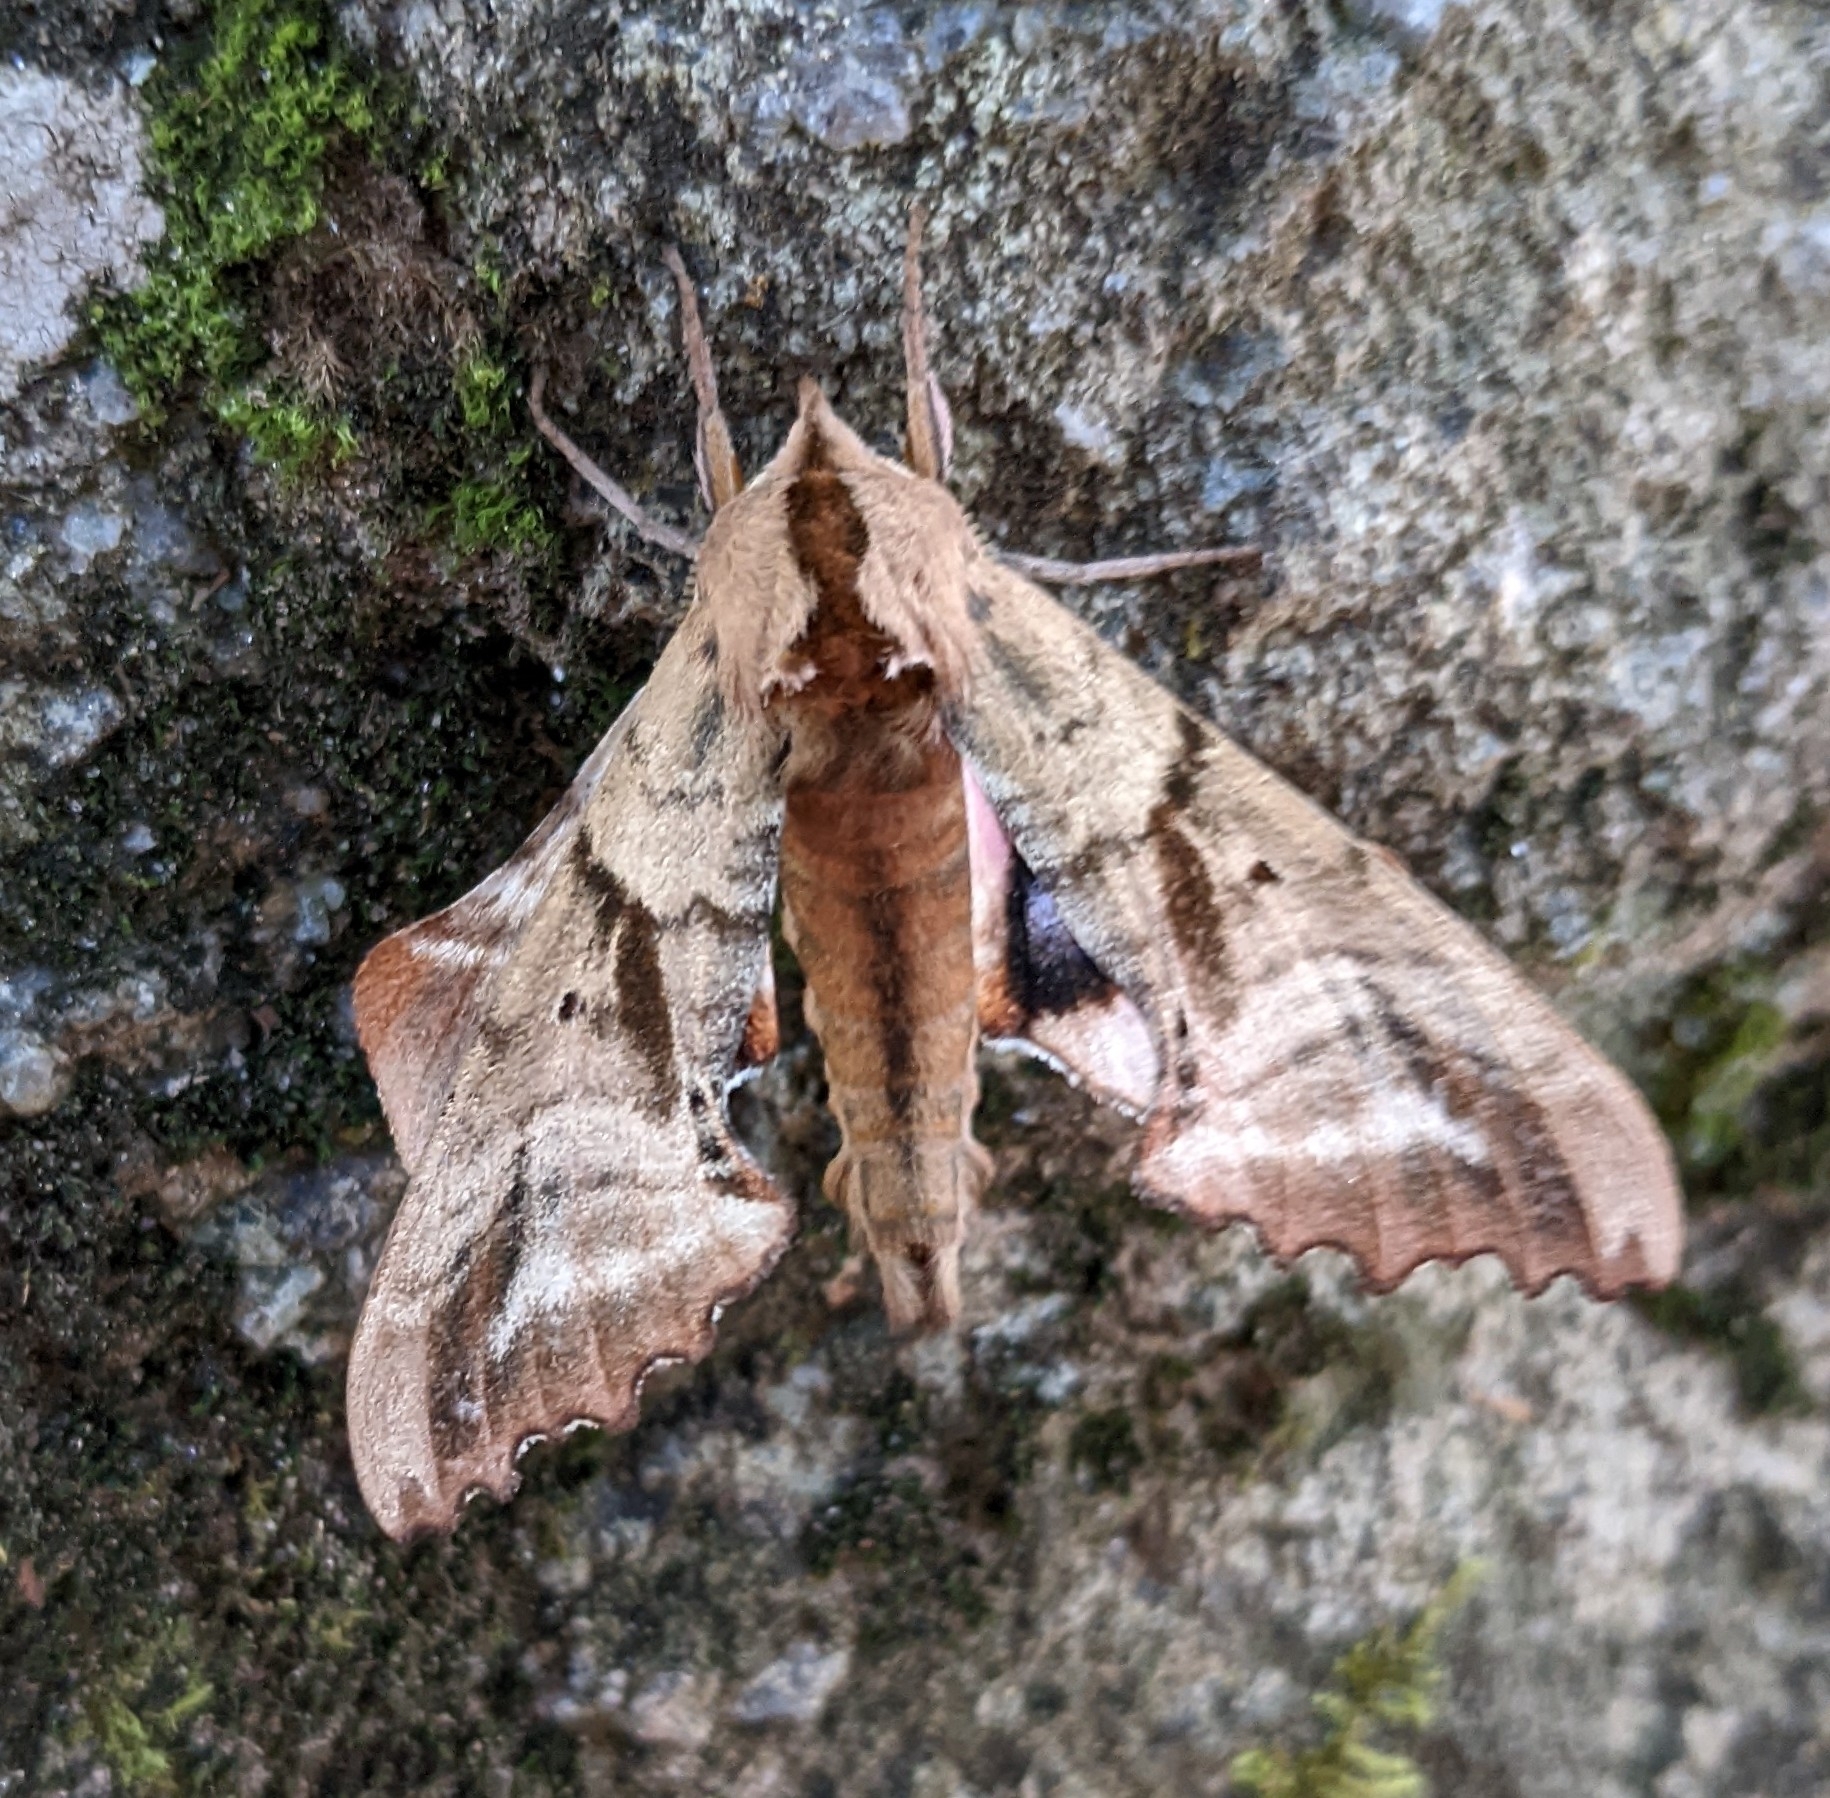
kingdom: Animalia
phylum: Arthropoda
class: Insecta
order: Lepidoptera
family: Sphingidae
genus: Paonias
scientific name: Paonias excaecata
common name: Blind-eyed sphinx
